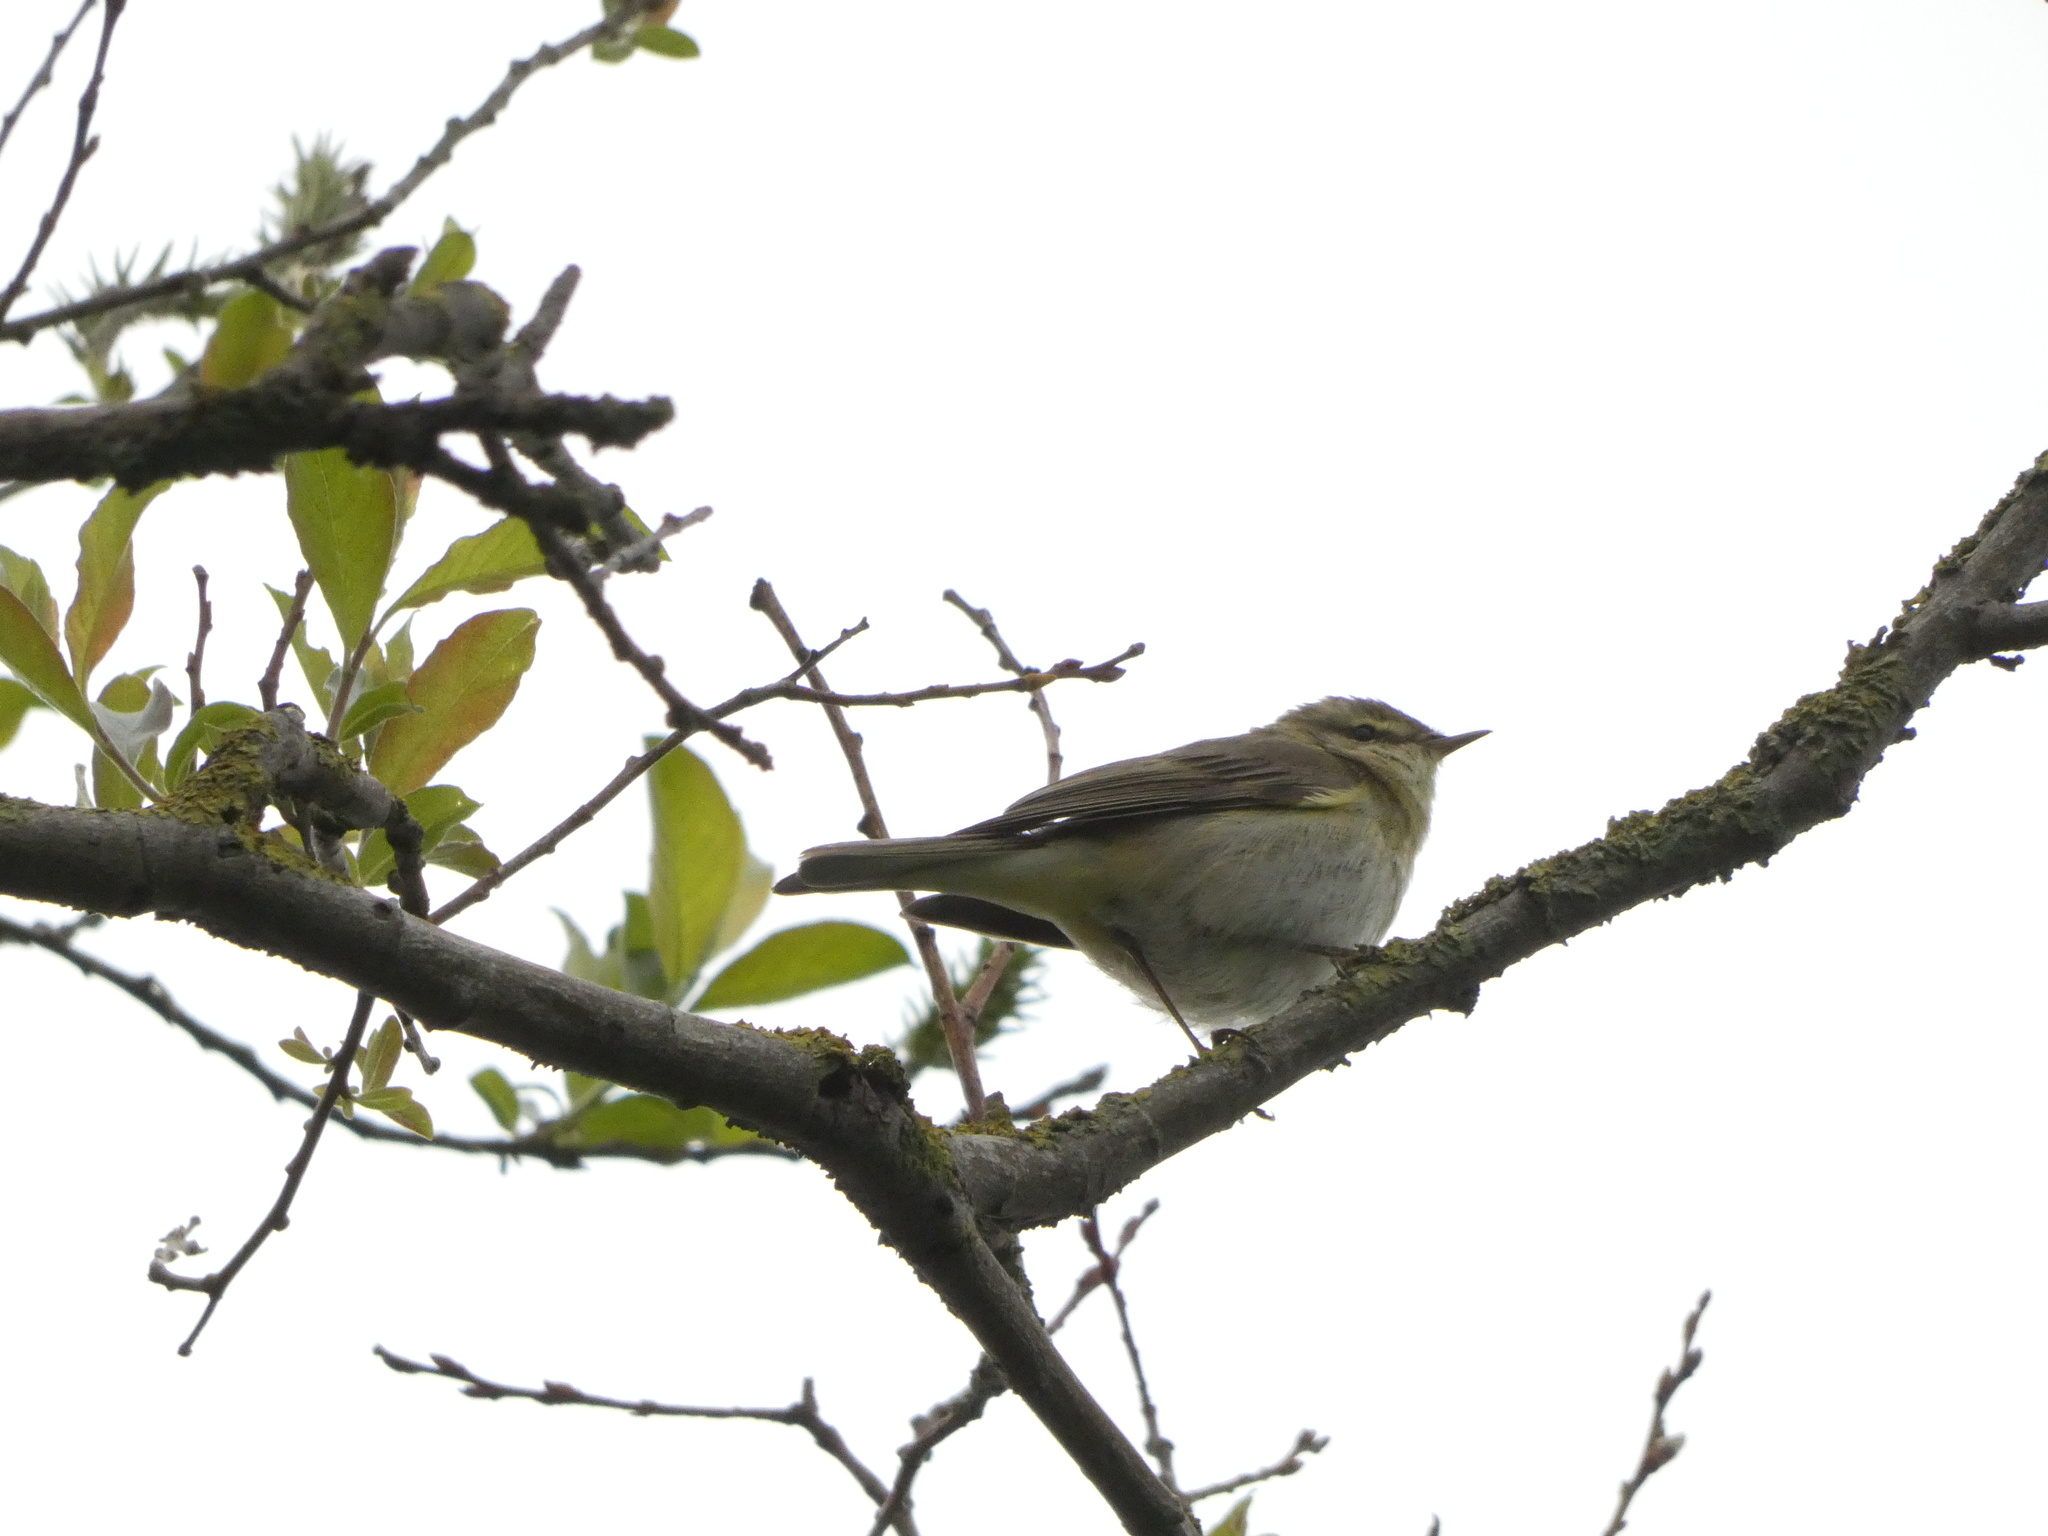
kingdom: Animalia
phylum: Chordata
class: Aves
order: Passeriformes
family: Phylloscopidae
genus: Phylloscopus
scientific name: Phylloscopus trochilus
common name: Willow warbler
